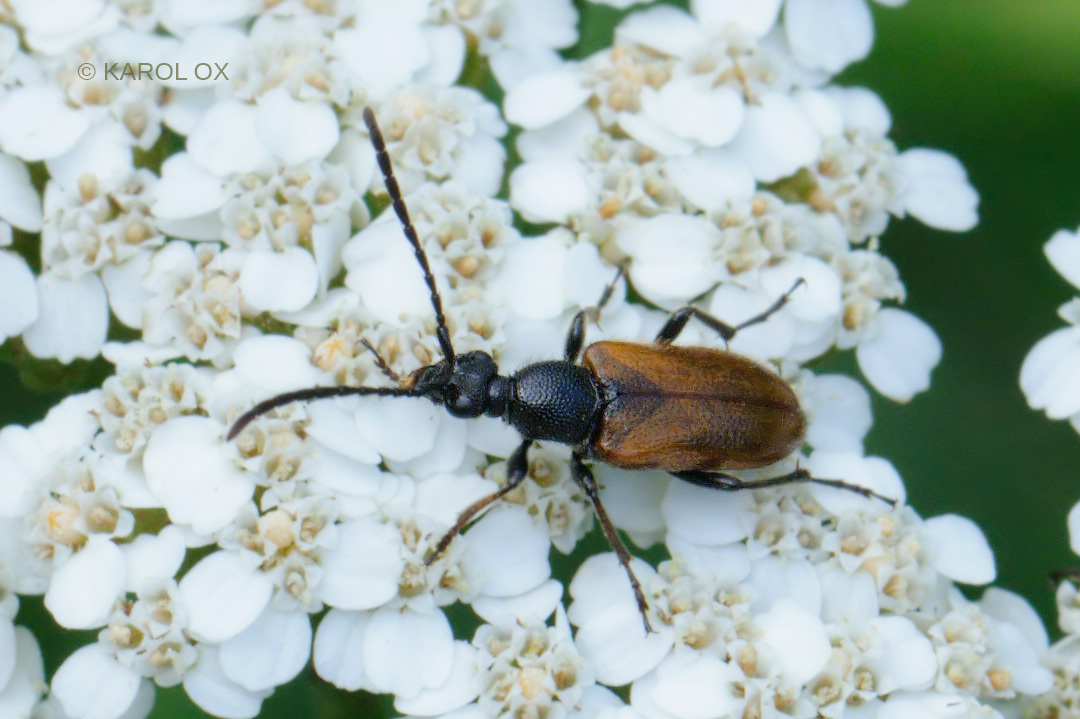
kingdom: Animalia
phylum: Arthropoda
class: Insecta
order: Coleoptera
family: Cerambycidae
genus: Pseudovadonia
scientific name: Pseudovadonia livida
